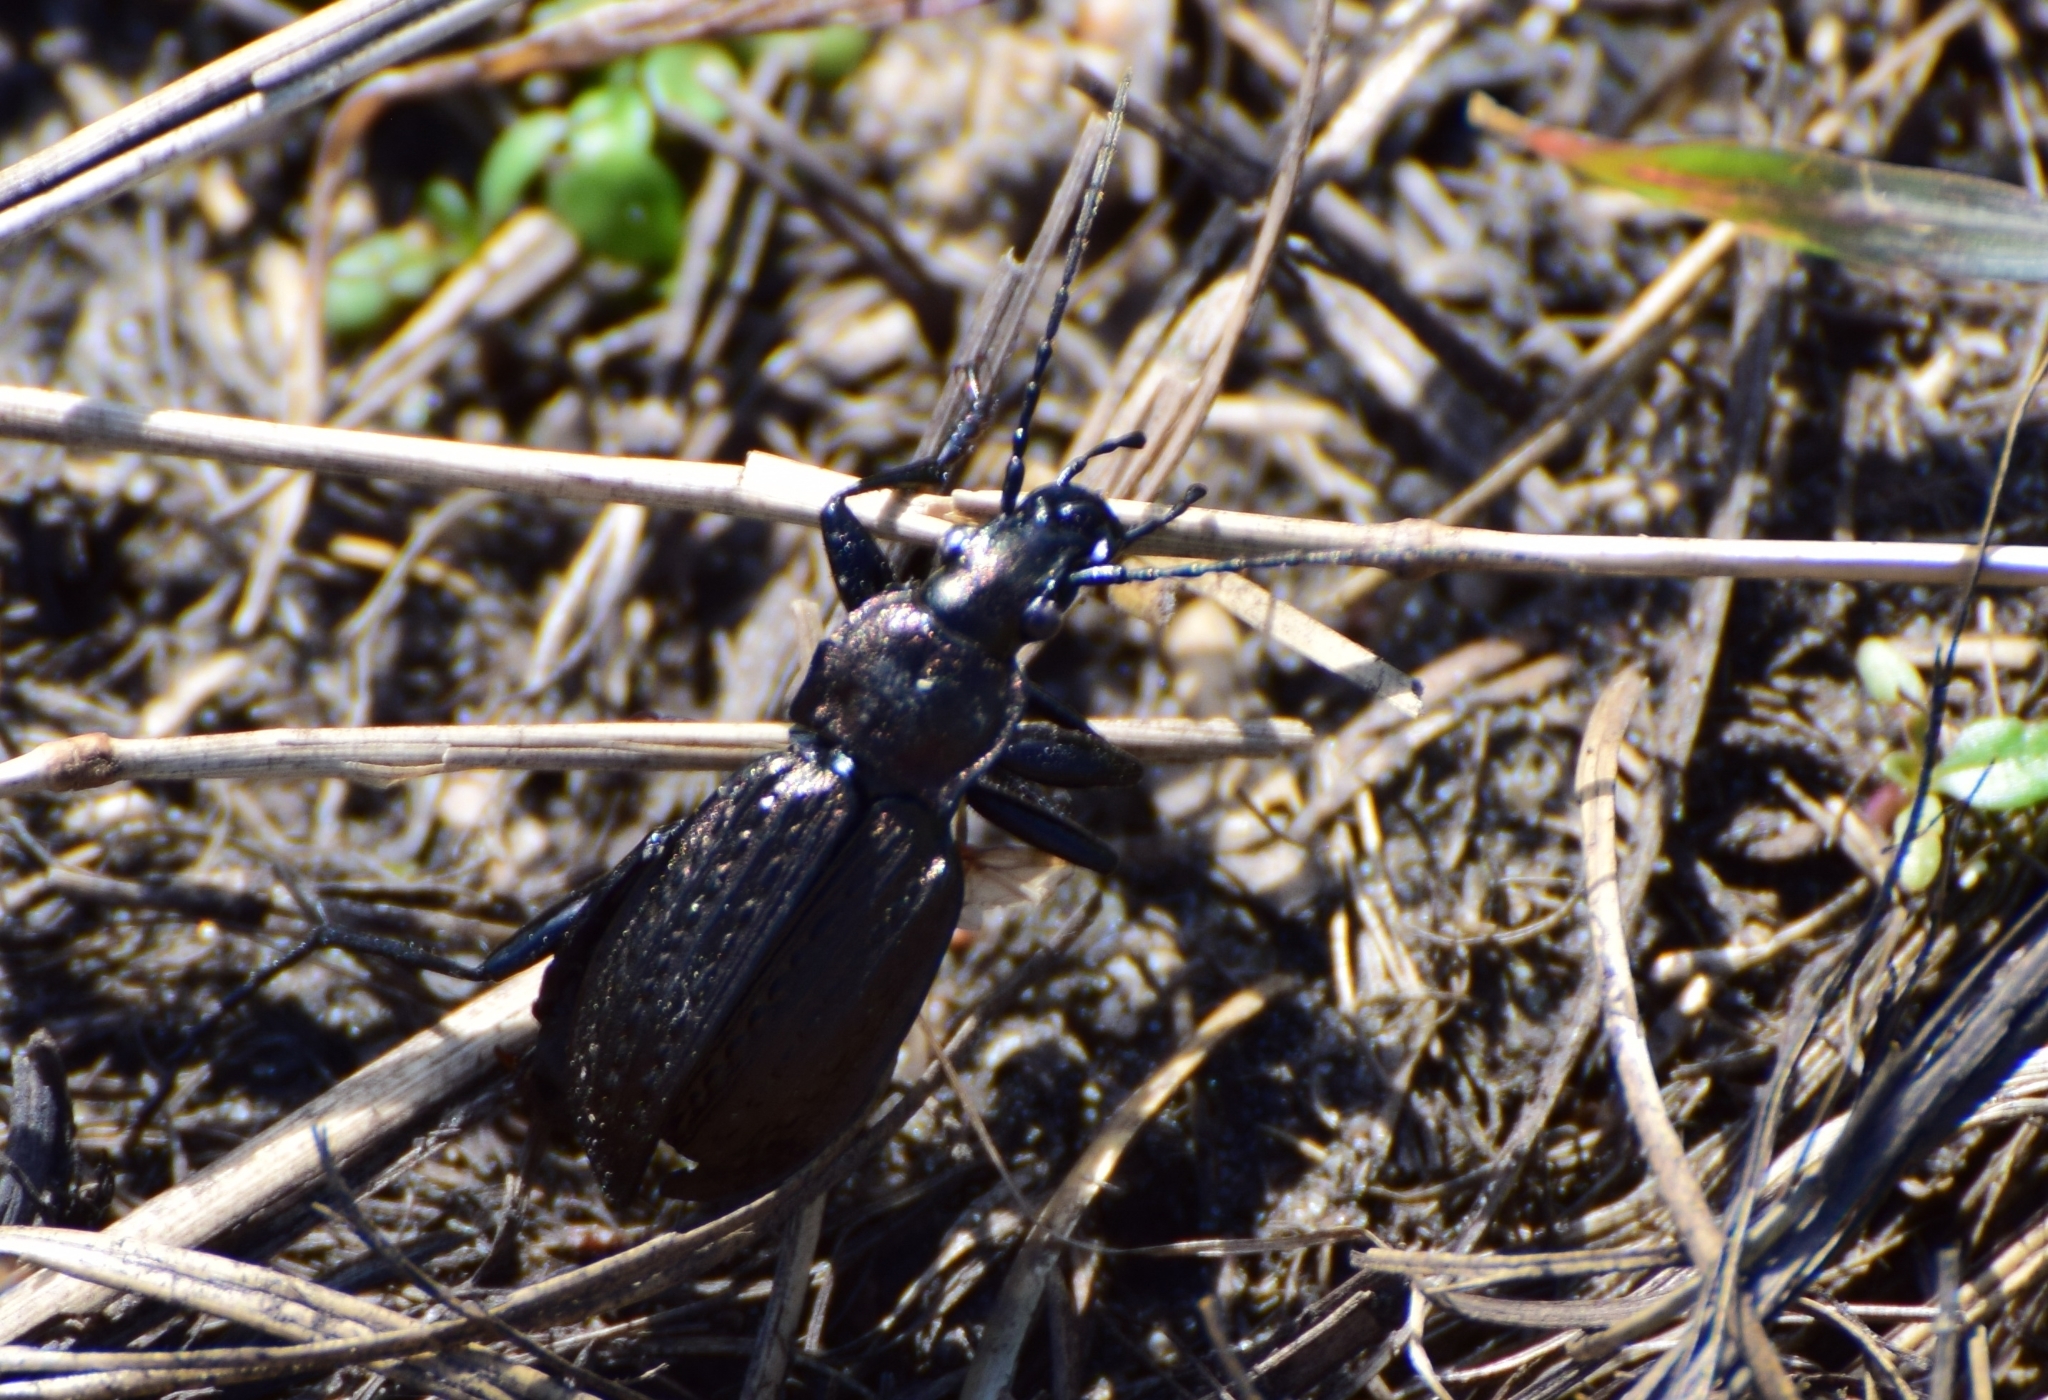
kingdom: Animalia
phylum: Arthropoda
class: Insecta
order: Coleoptera
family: Carabidae
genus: Carabus
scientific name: Carabus granulatus
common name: Granulate ground beetle
